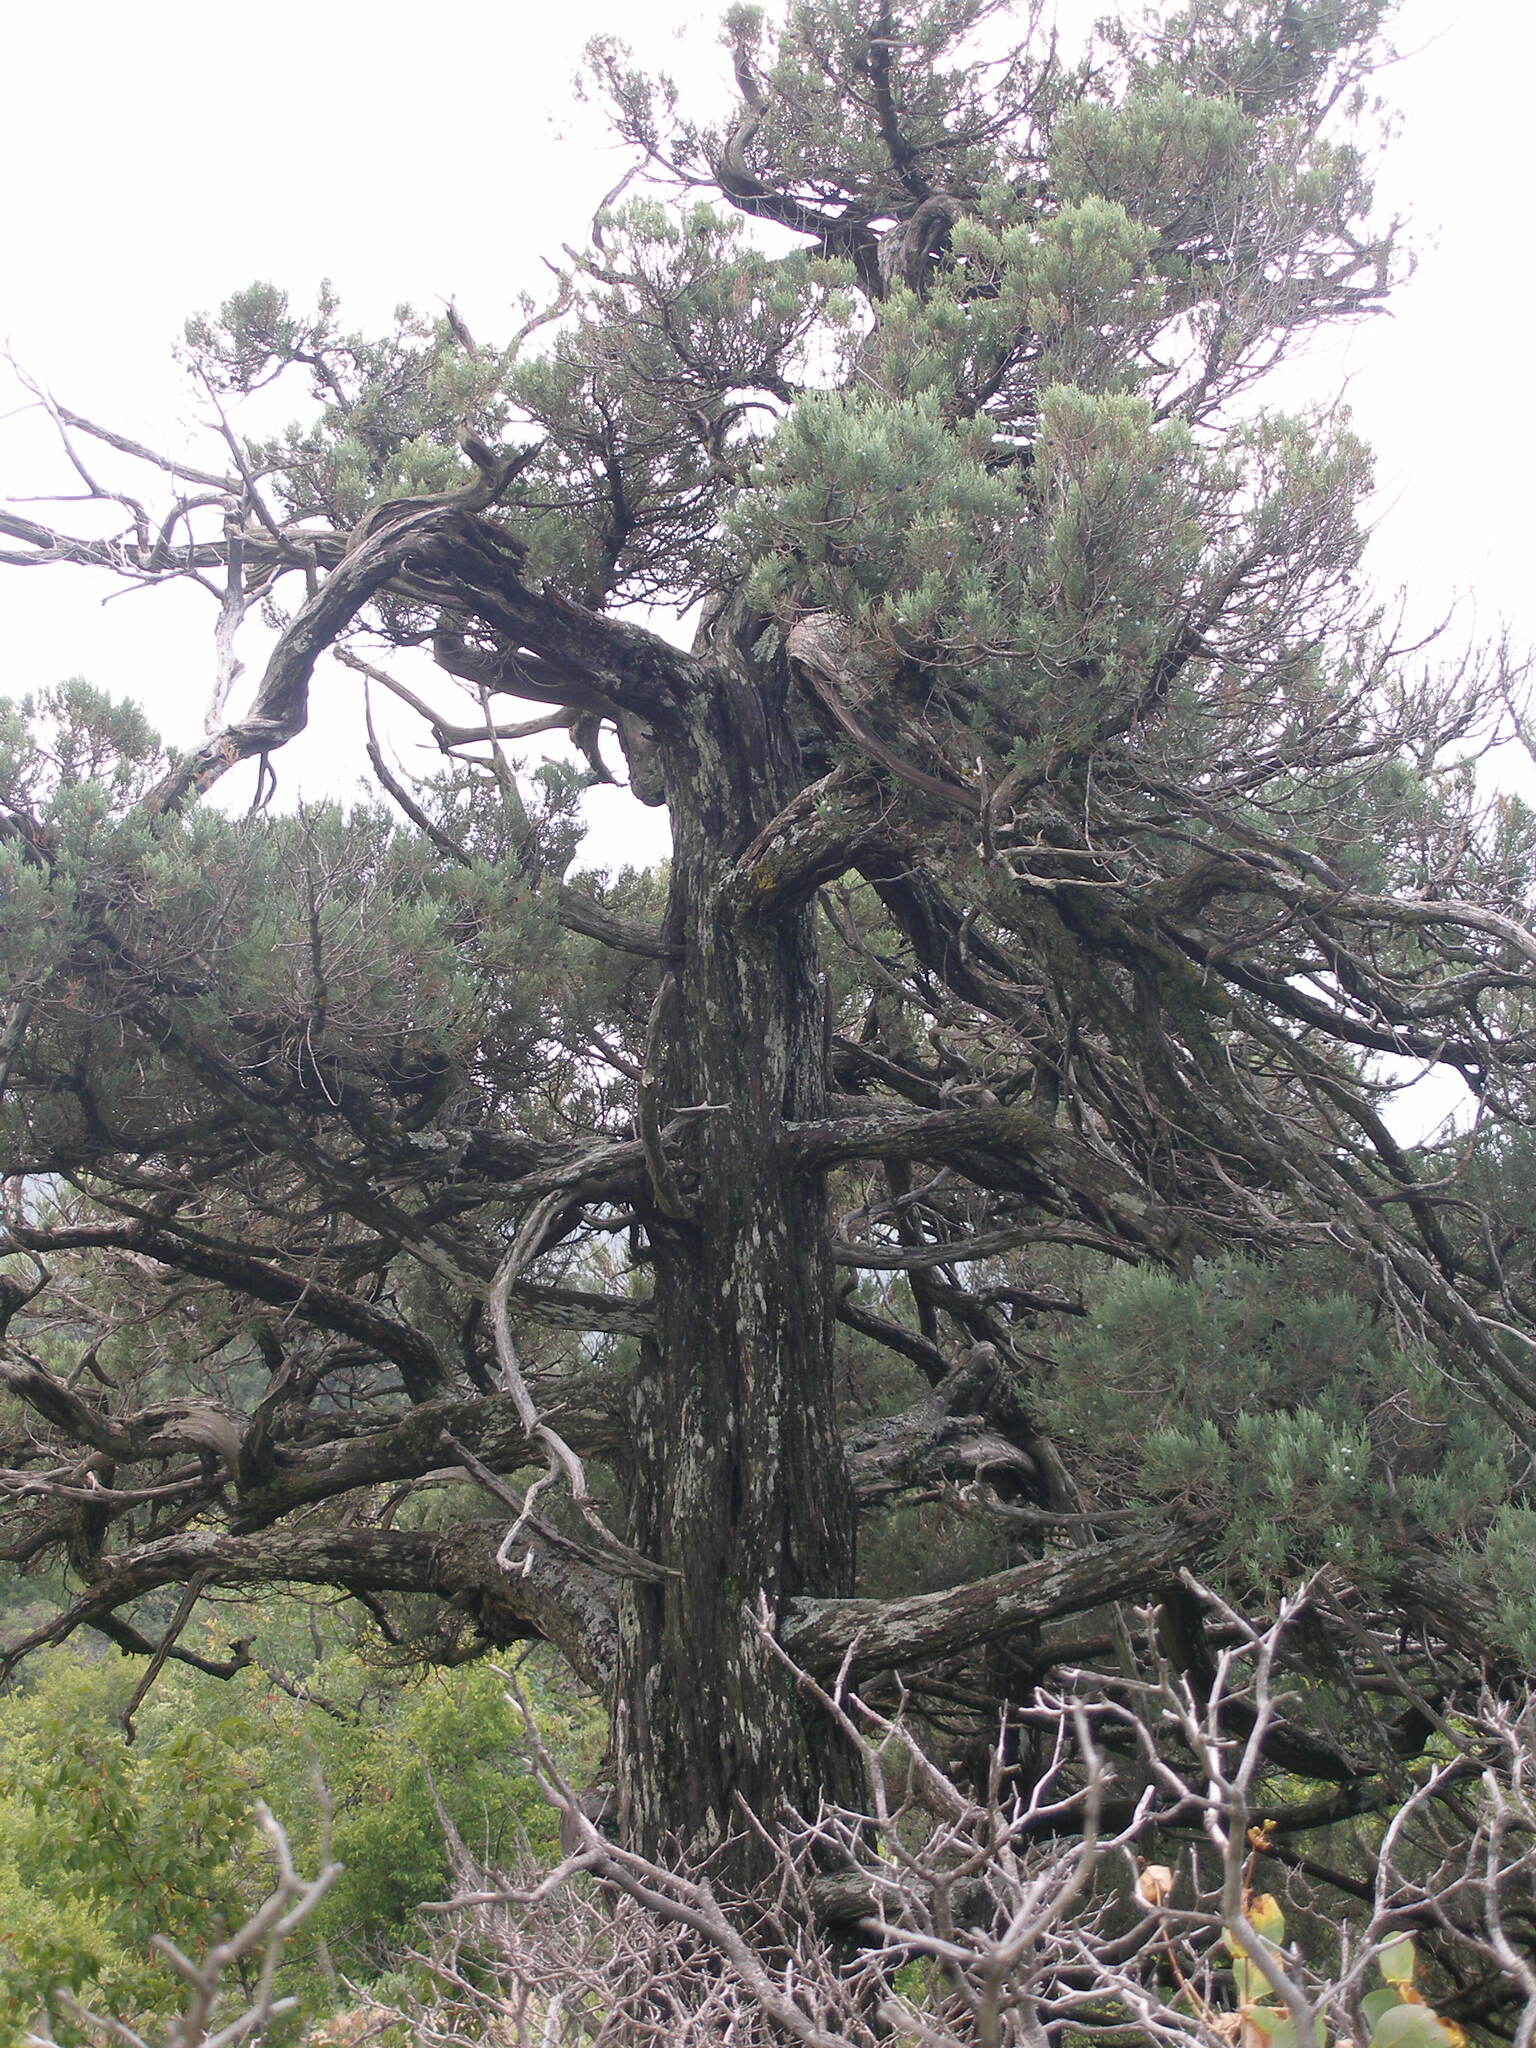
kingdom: Plantae
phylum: Tracheophyta
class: Pinopsida
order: Pinales
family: Cupressaceae
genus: Juniperus
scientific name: Juniperus excelsa
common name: Crimean juniper
